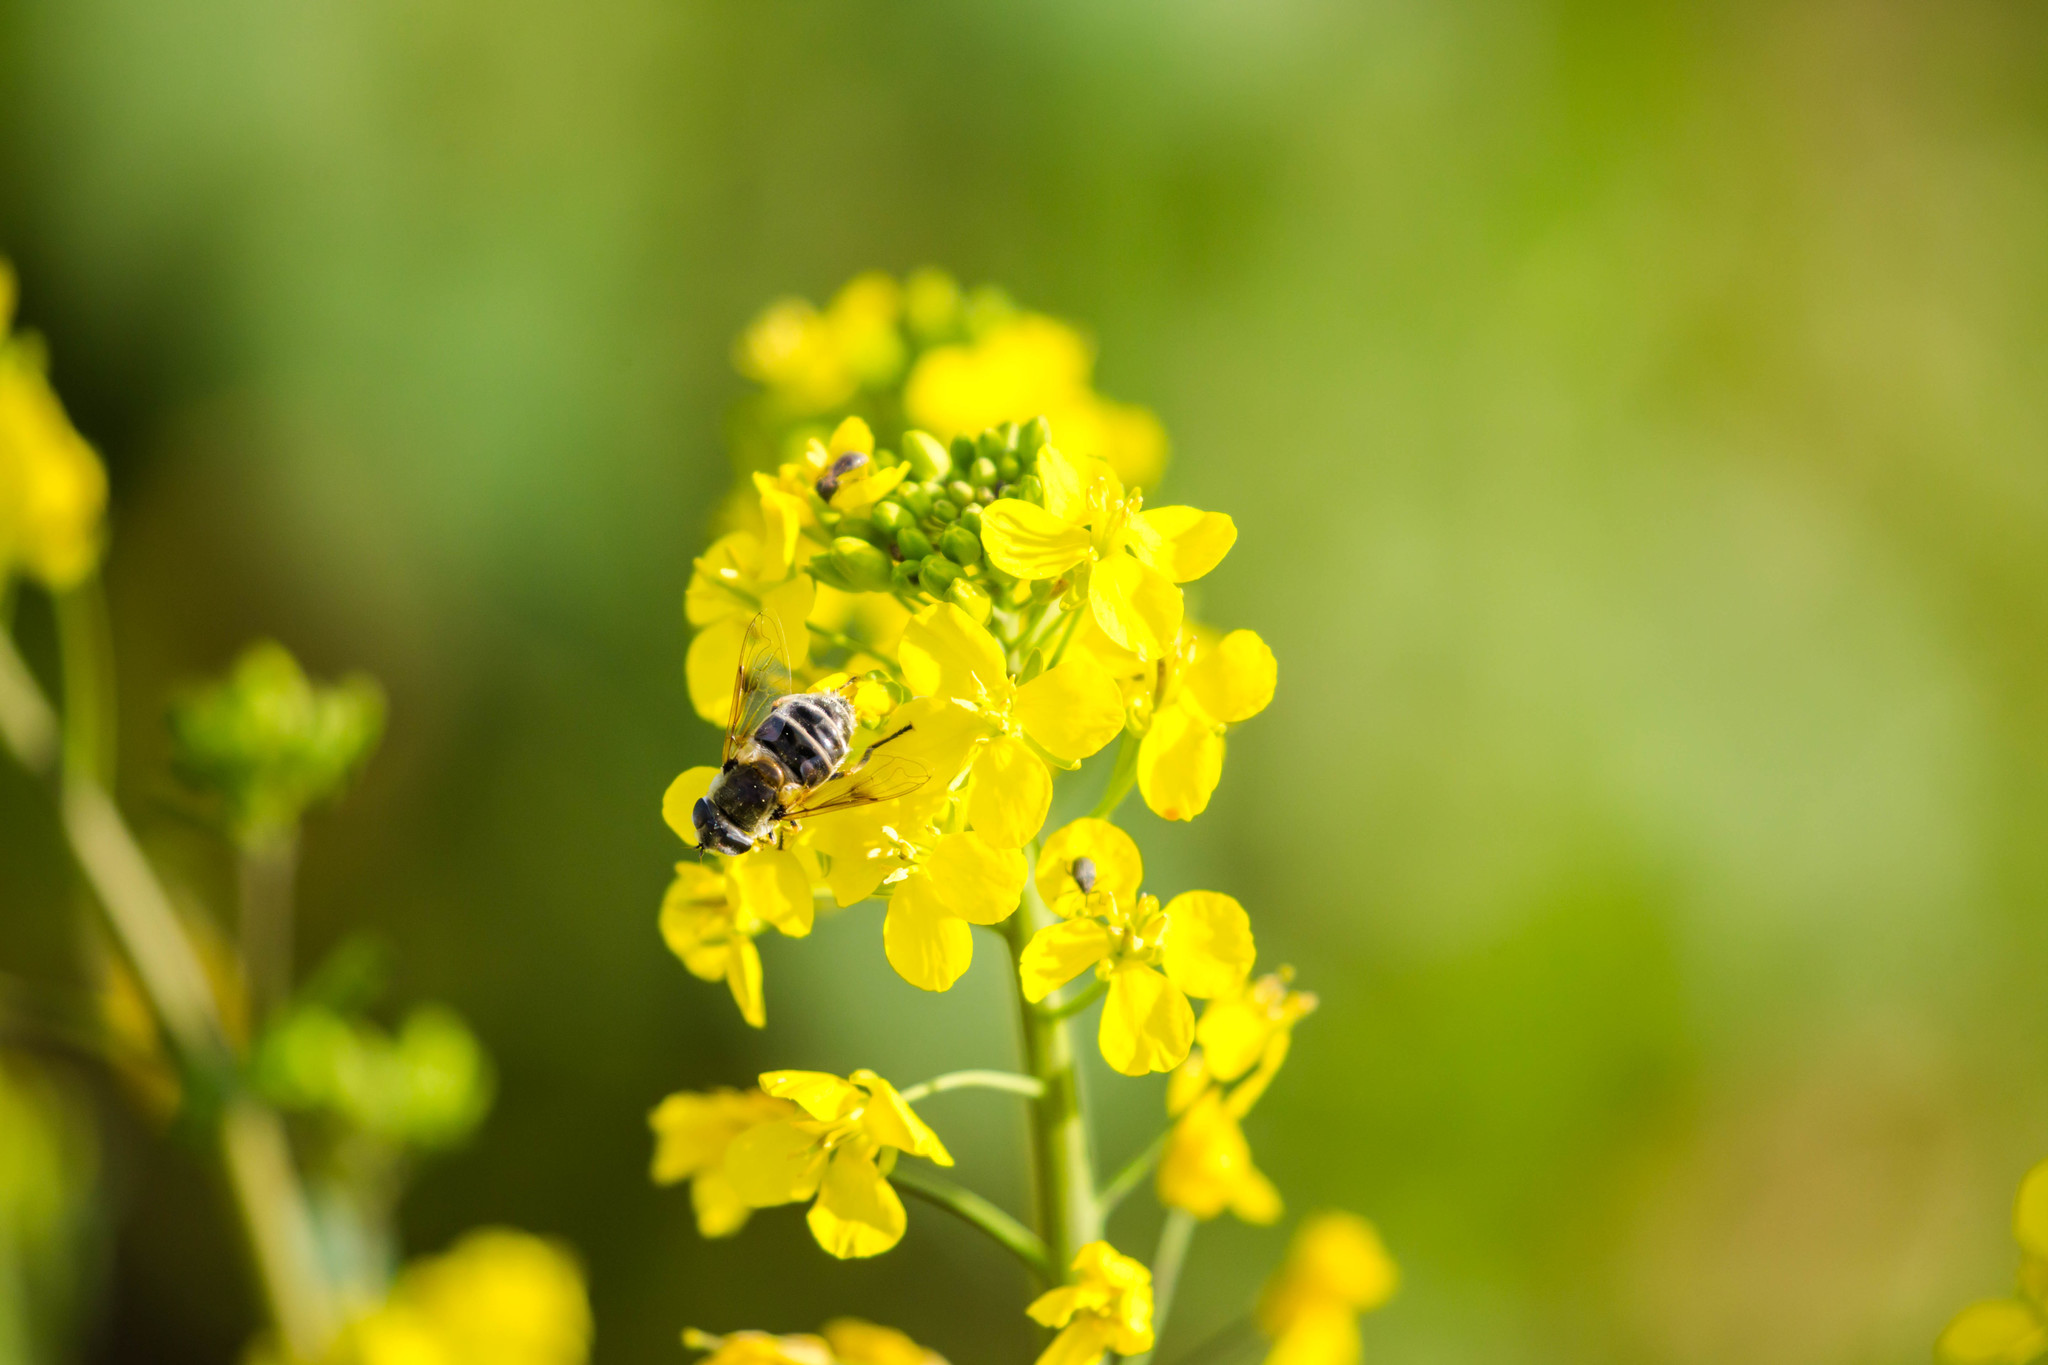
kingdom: Animalia
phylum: Arthropoda
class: Insecta
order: Diptera
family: Syrphidae
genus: Eristalis
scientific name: Eristalis stipator
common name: Yellow-shouldered drone fly
